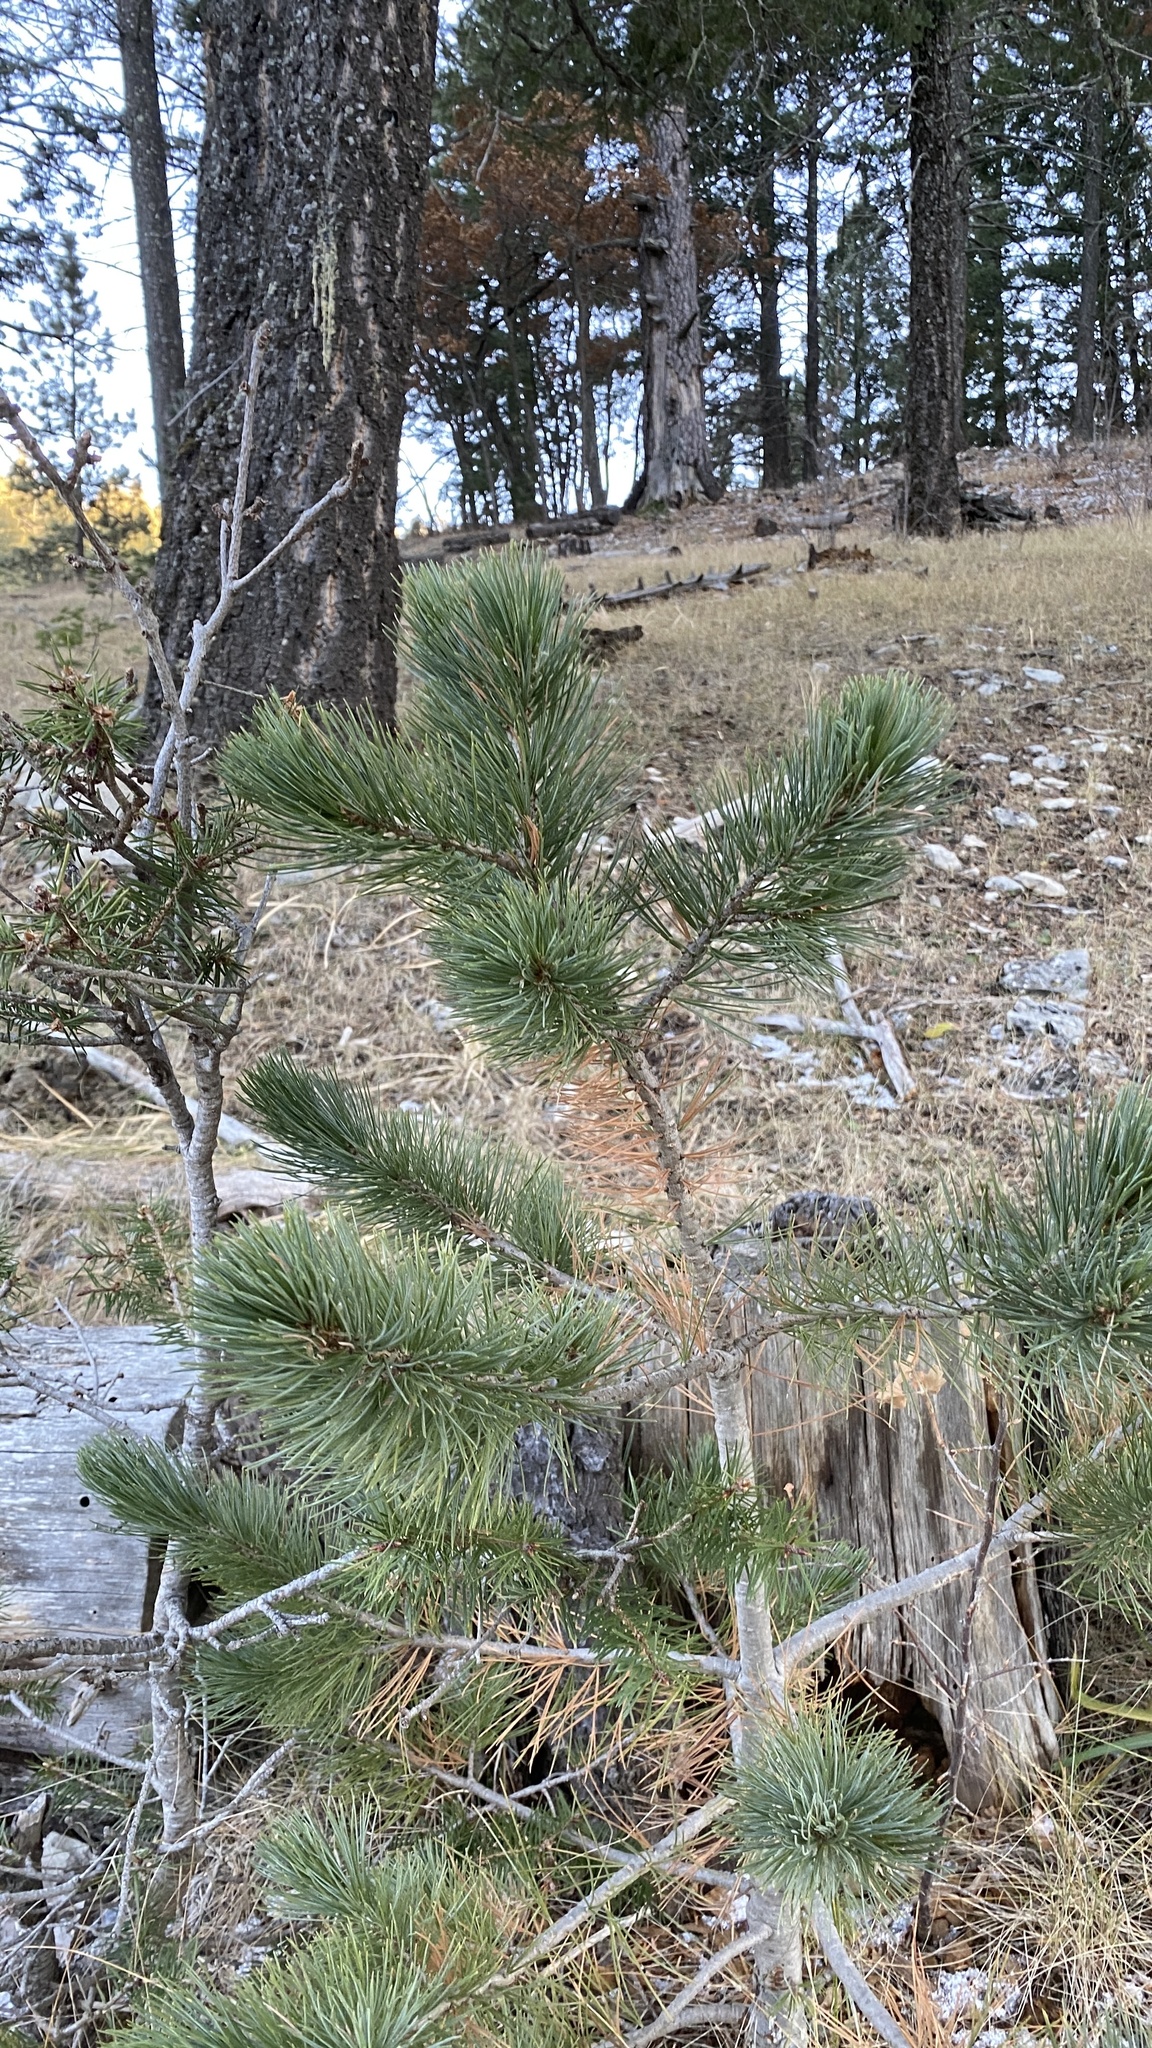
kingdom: Plantae
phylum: Tracheophyta
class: Pinopsida
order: Pinales
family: Pinaceae
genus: Pinus
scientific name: Pinus strobiformis
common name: Southwestern white pine
